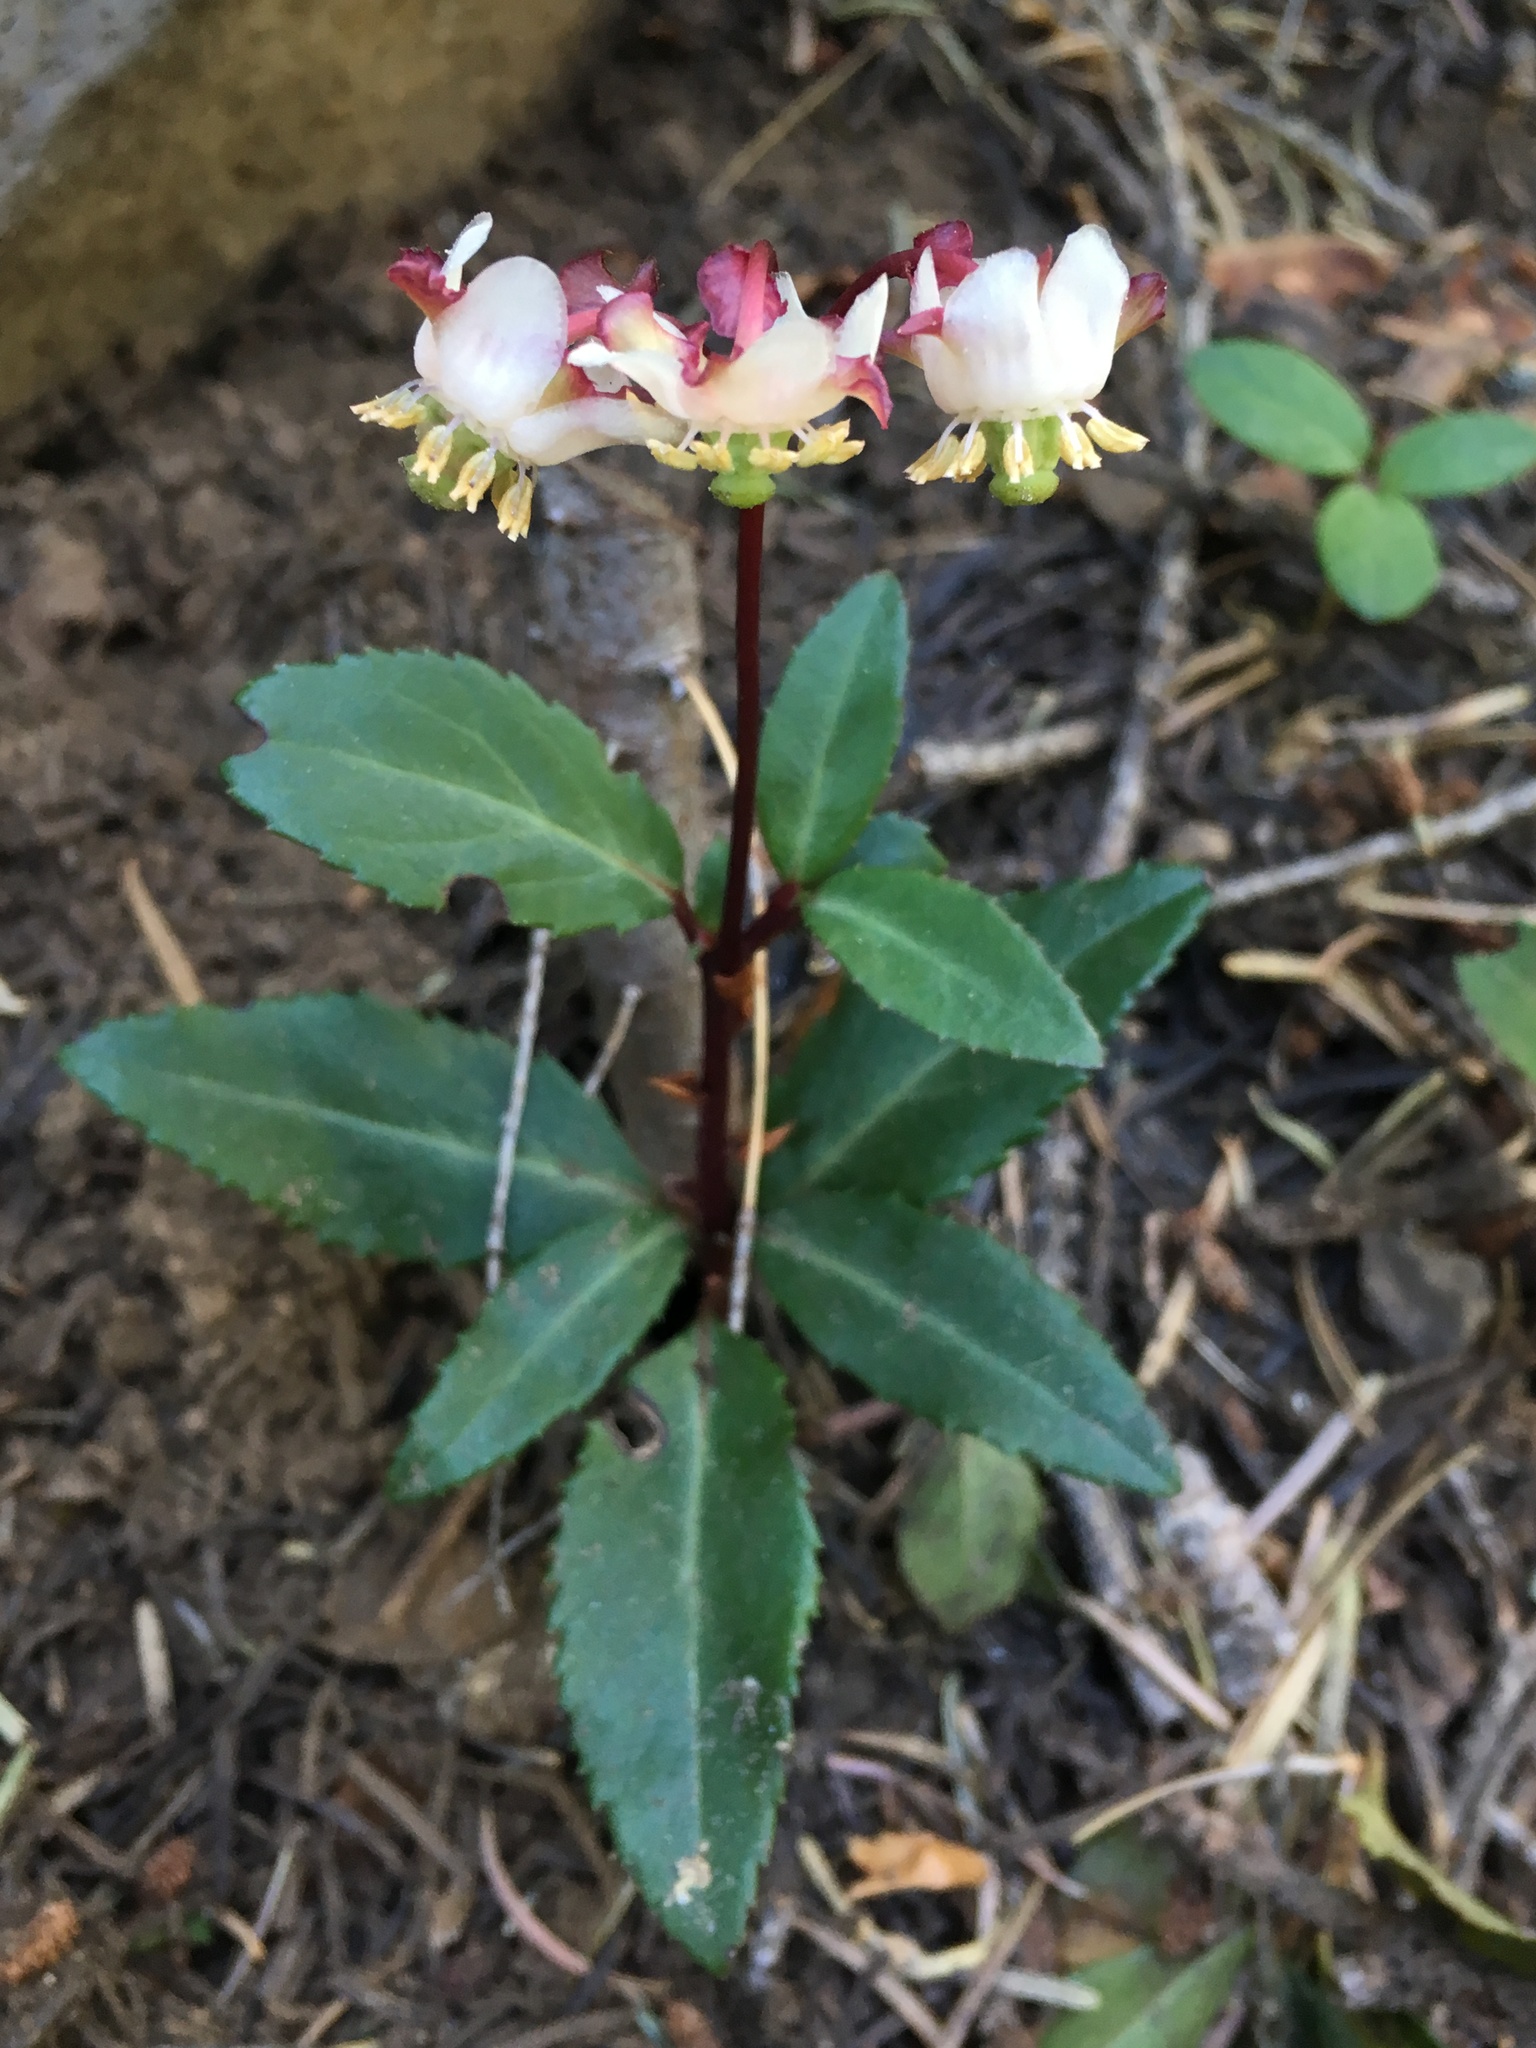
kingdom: Plantae
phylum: Tracheophyta
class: Magnoliopsida
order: Ericales
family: Ericaceae
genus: Chimaphila
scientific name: Chimaphila menziesii
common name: Menzies' pipsissewa
